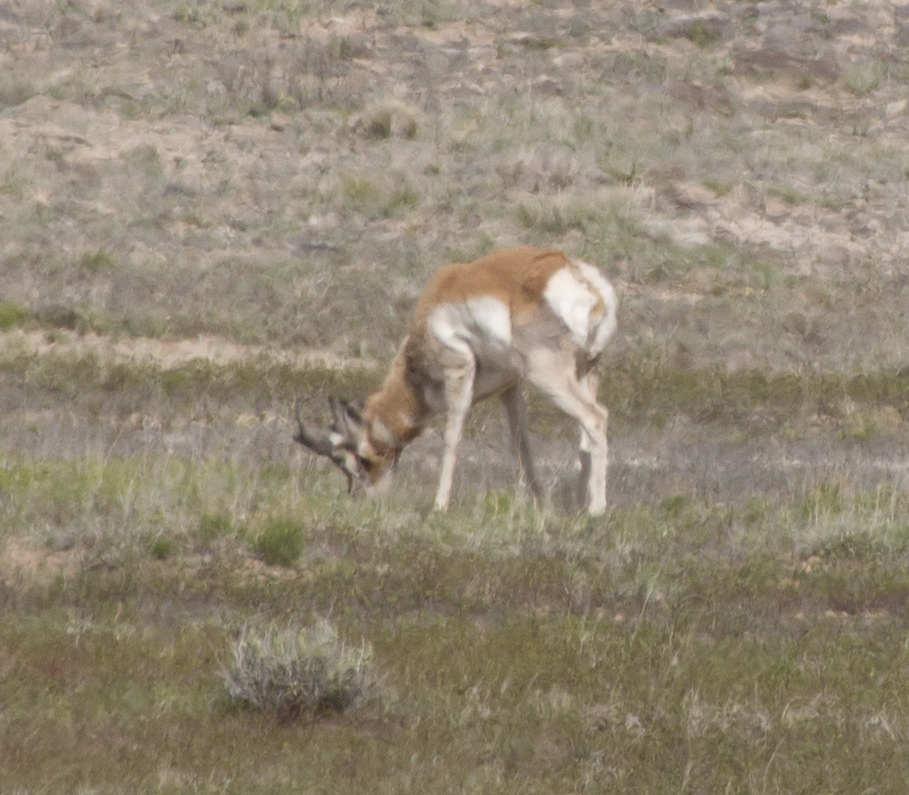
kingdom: Animalia
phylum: Chordata
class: Mammalia
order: Artiodactyla
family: Antilocapridae
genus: Antilocapra
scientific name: Antilocapra americana
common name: Pronghorn
